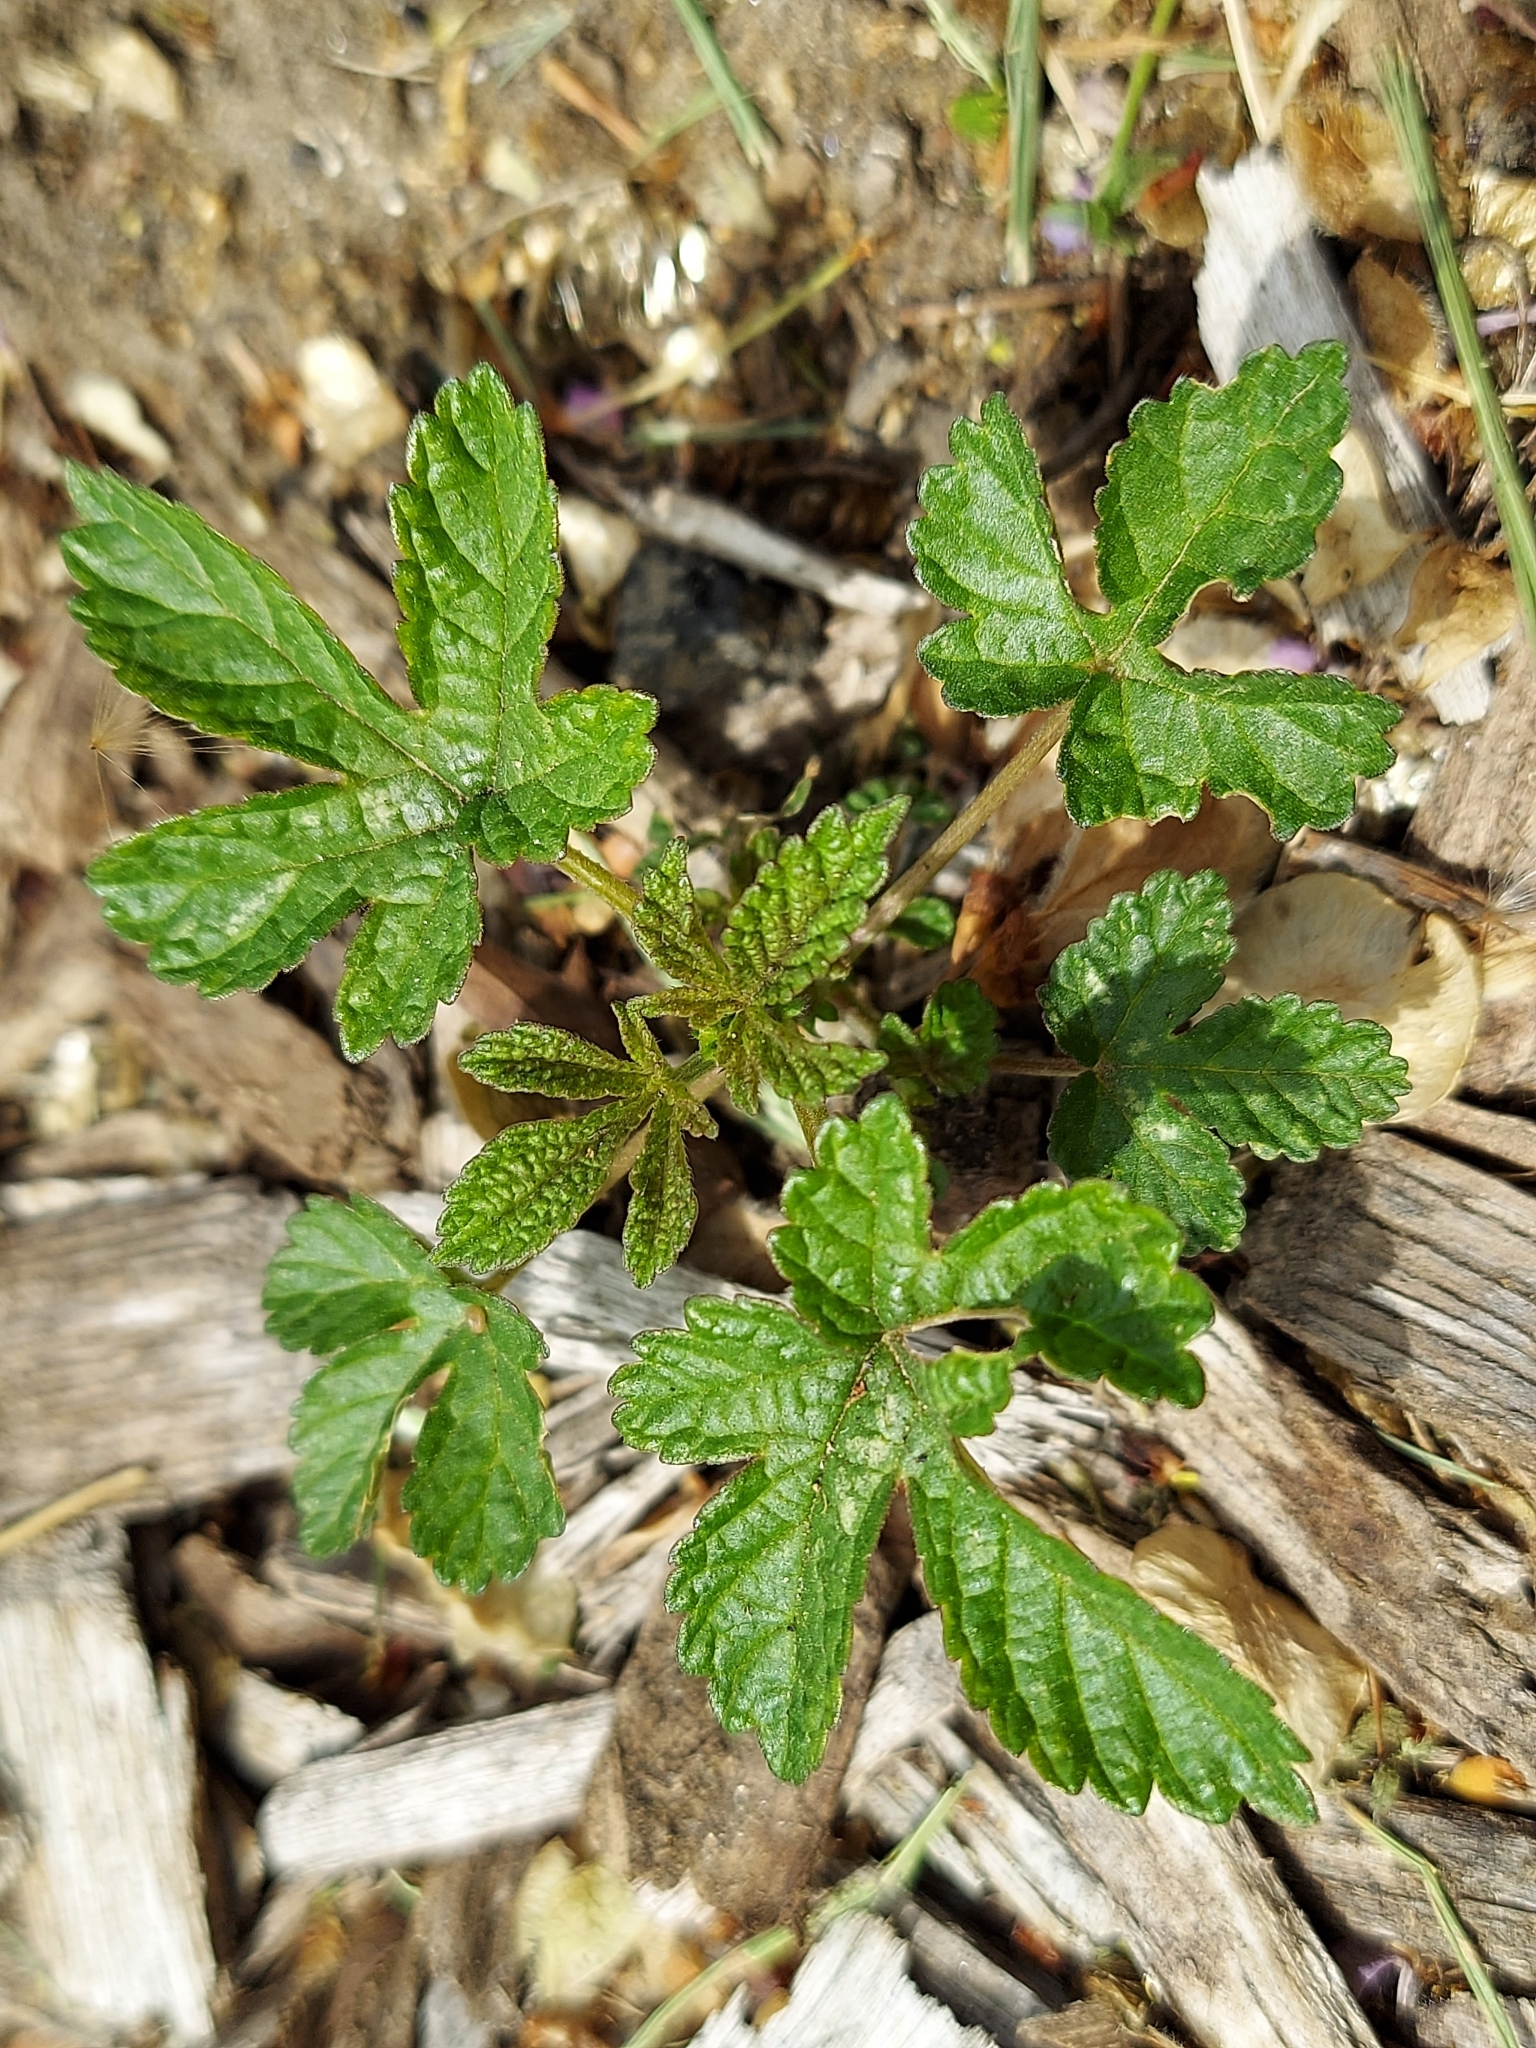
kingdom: Plantae
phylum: Tracheophyta
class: Magnoliopsida
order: Rosales
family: Cannabaceae
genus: Humulus
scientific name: Humulus scandens
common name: Japanese hop
